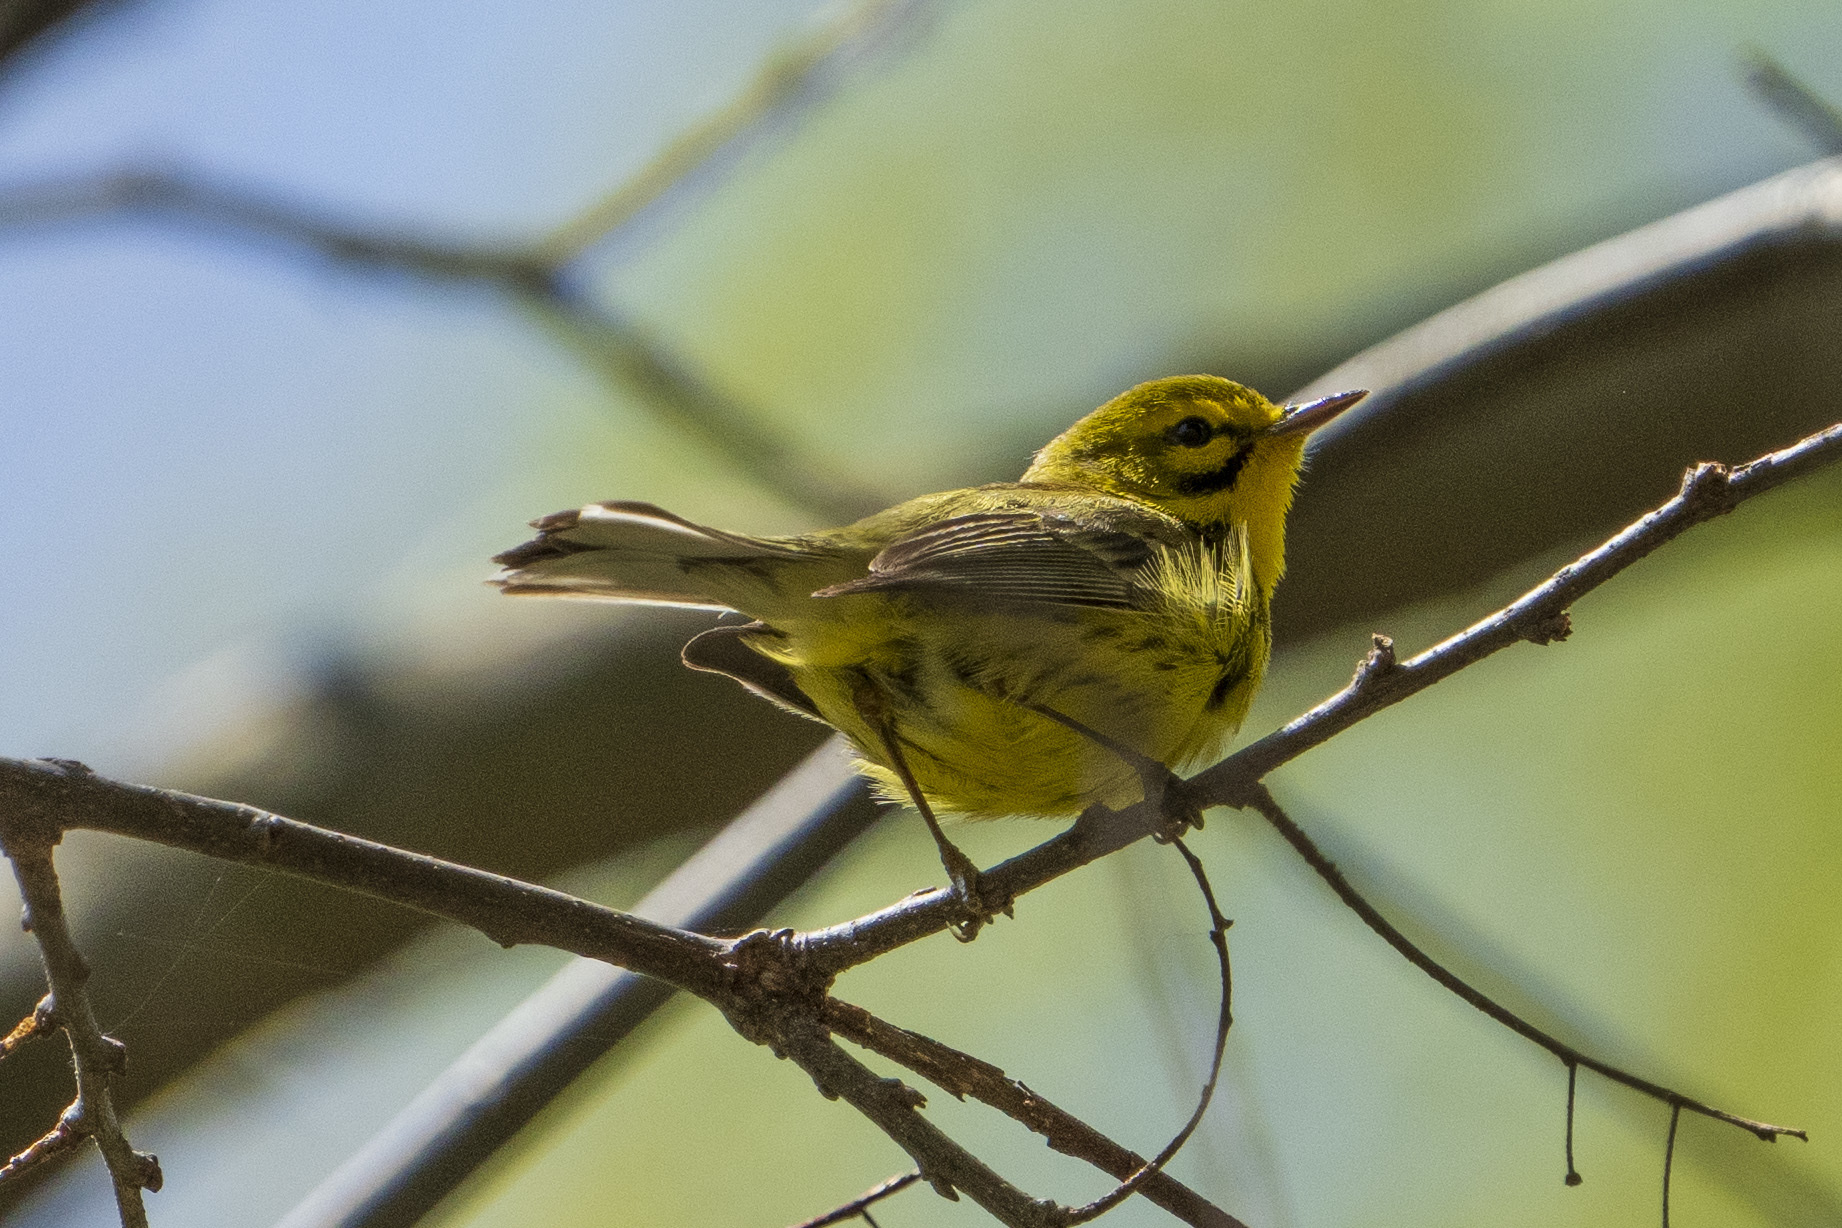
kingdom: Animalia
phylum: Chordata
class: Aves
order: Passeriformes
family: Parulidae
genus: Setophaga
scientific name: Setophaga discolor
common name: Prairie warbler
